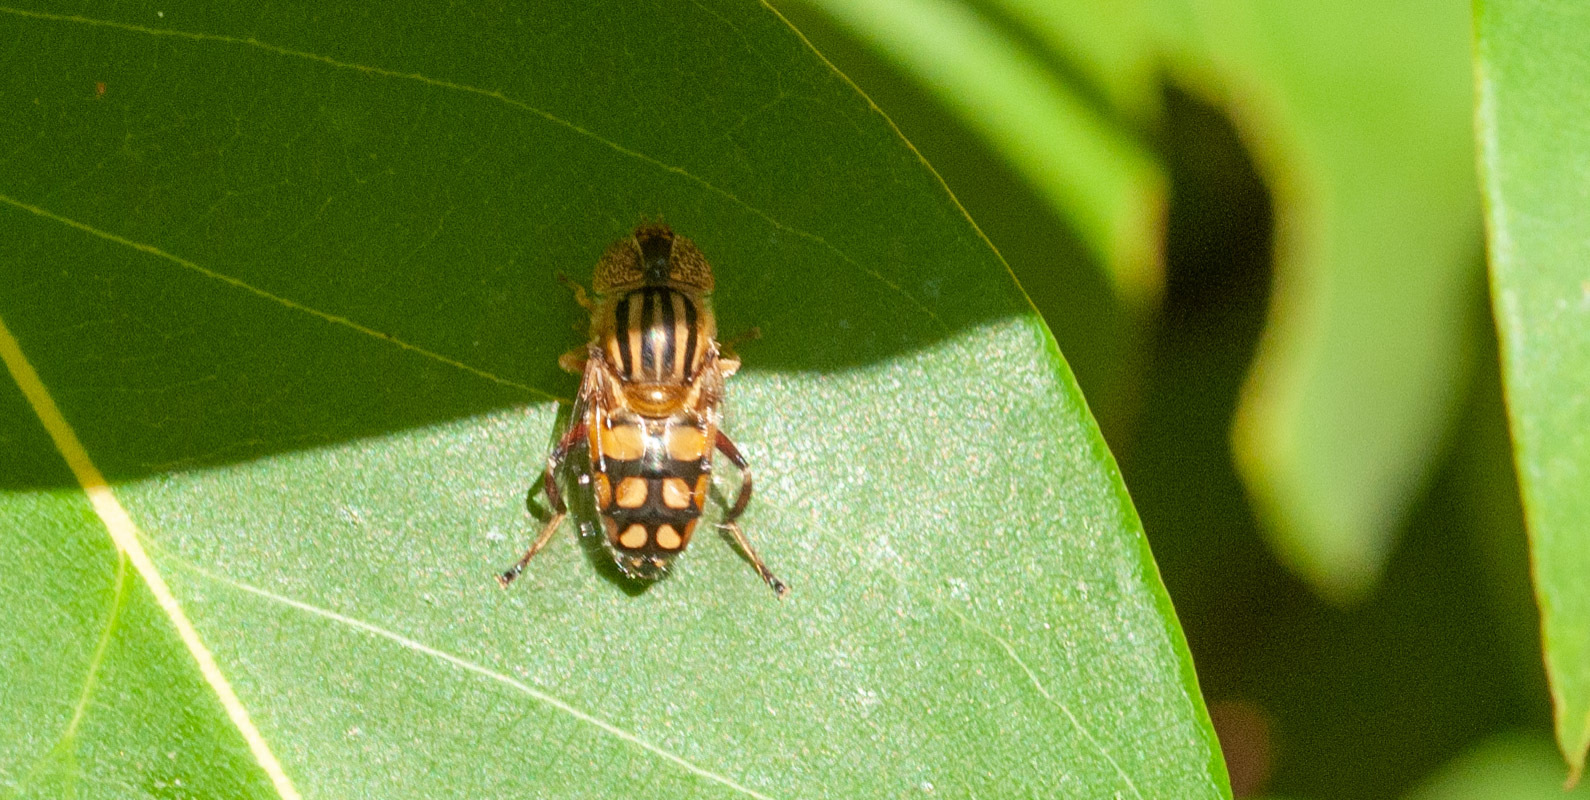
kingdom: Animalia
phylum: Arthropoda
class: Insecta
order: Diptera
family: Syrphidae
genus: Eristalinus
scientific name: Eristalinus punctulatus
